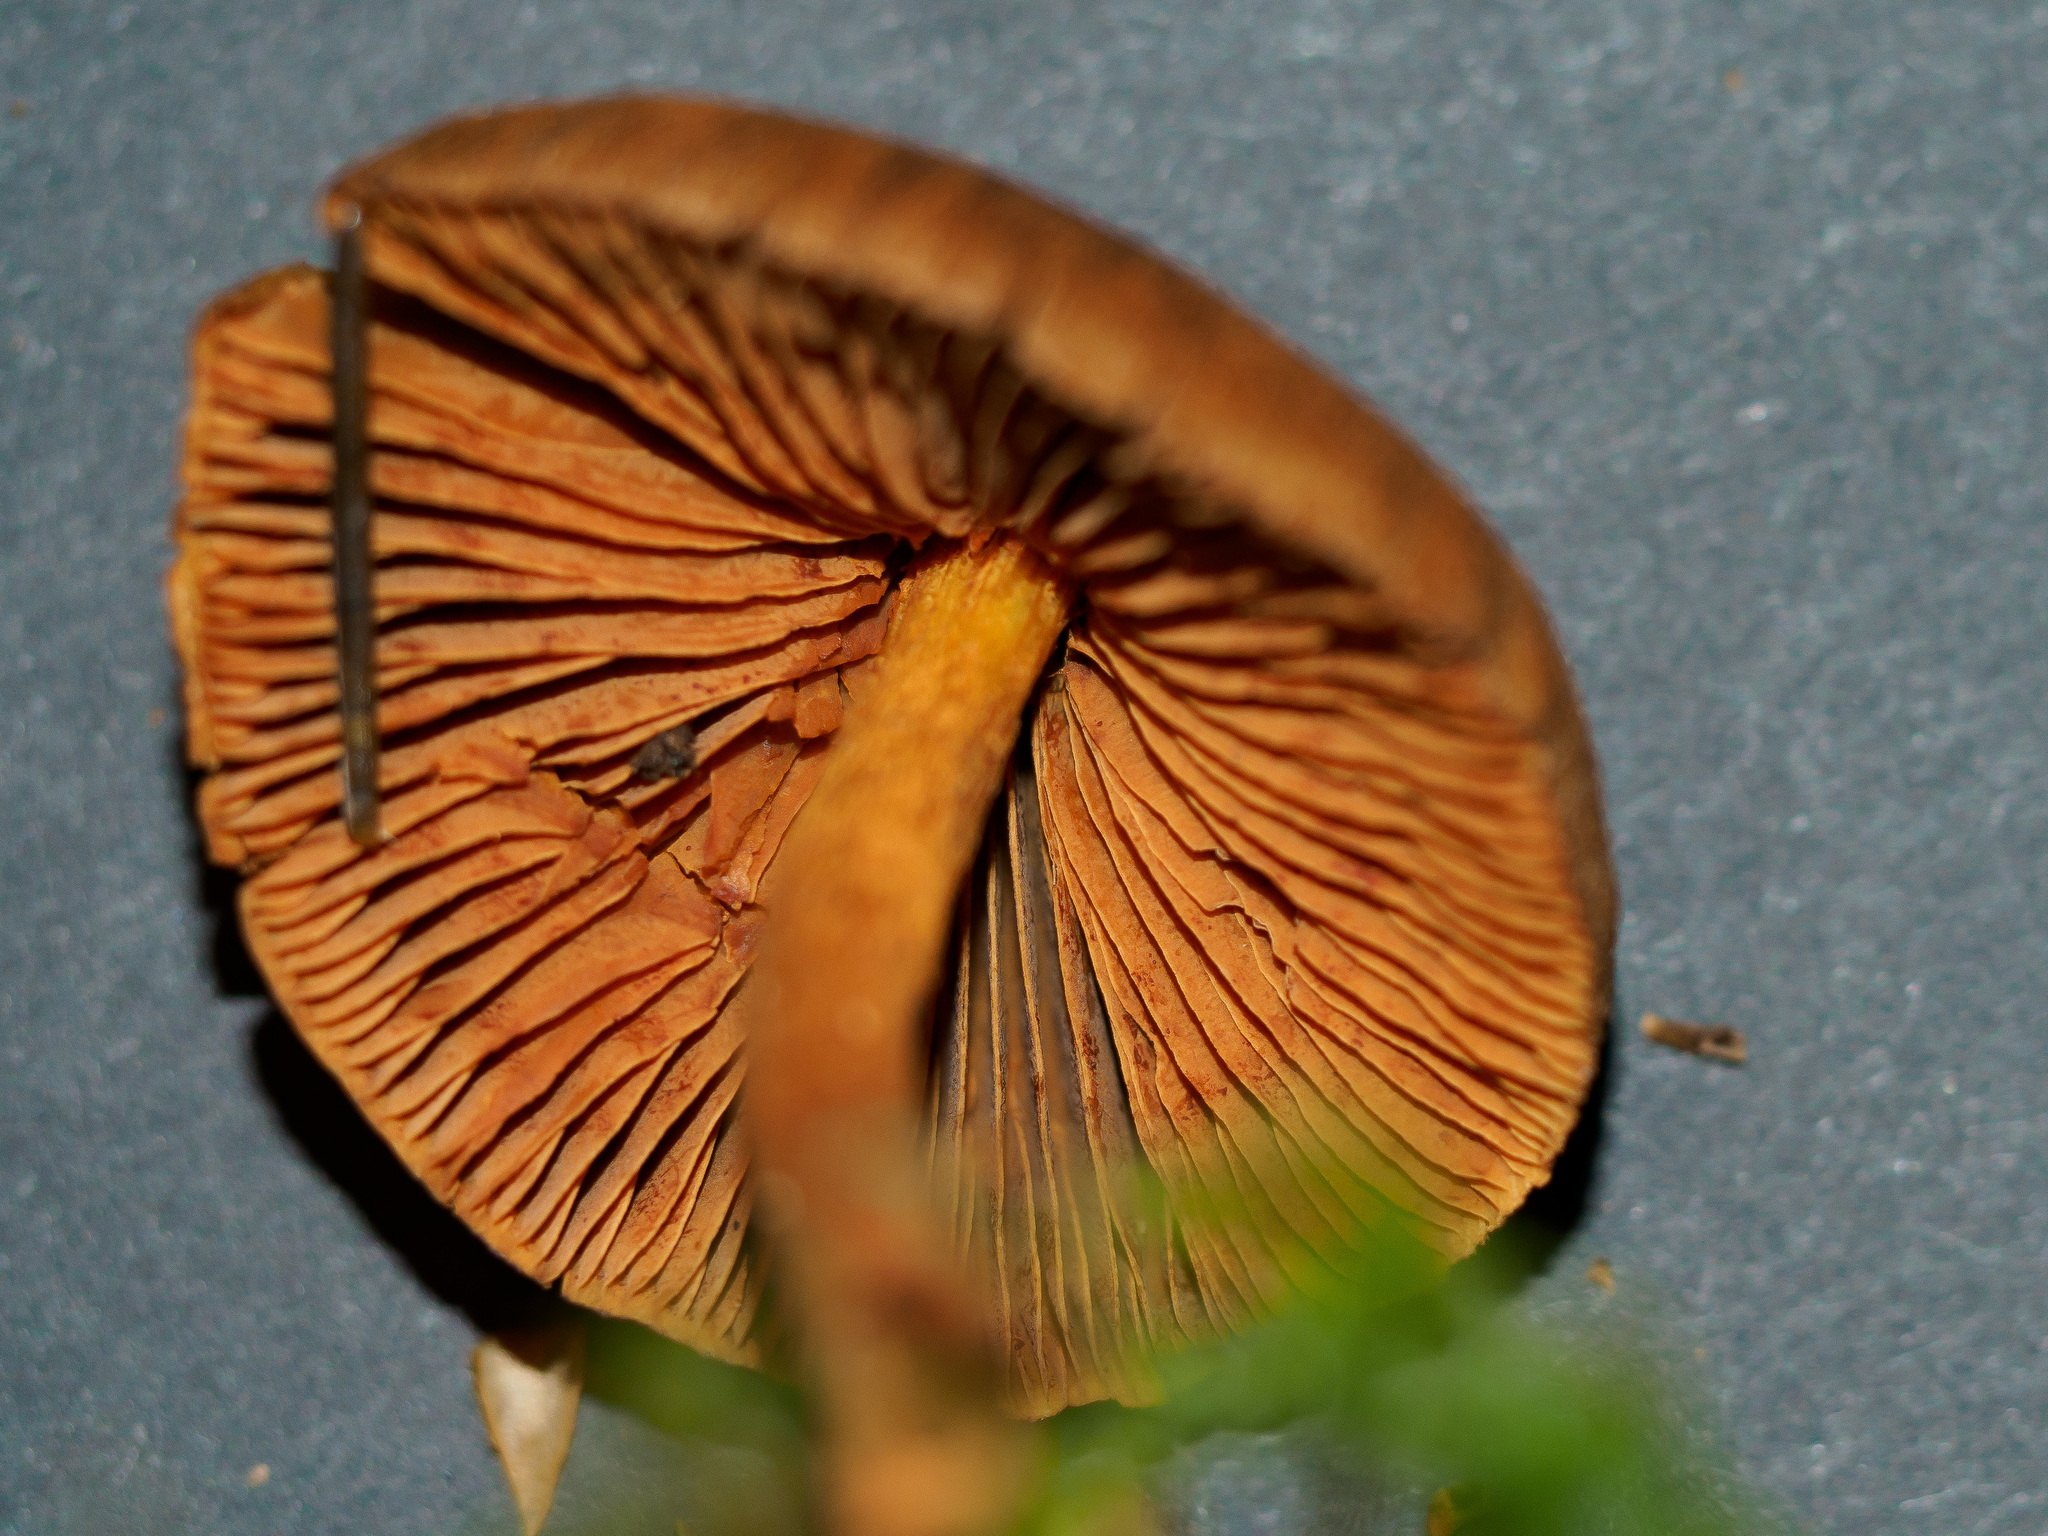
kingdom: Fungi
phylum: Basidiomycota
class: Agaricomycetes
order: Agaricales
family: Cortinariaceae
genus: Cortinarius
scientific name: Cortinarius cinnamomeus
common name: Cinnamon webcap
